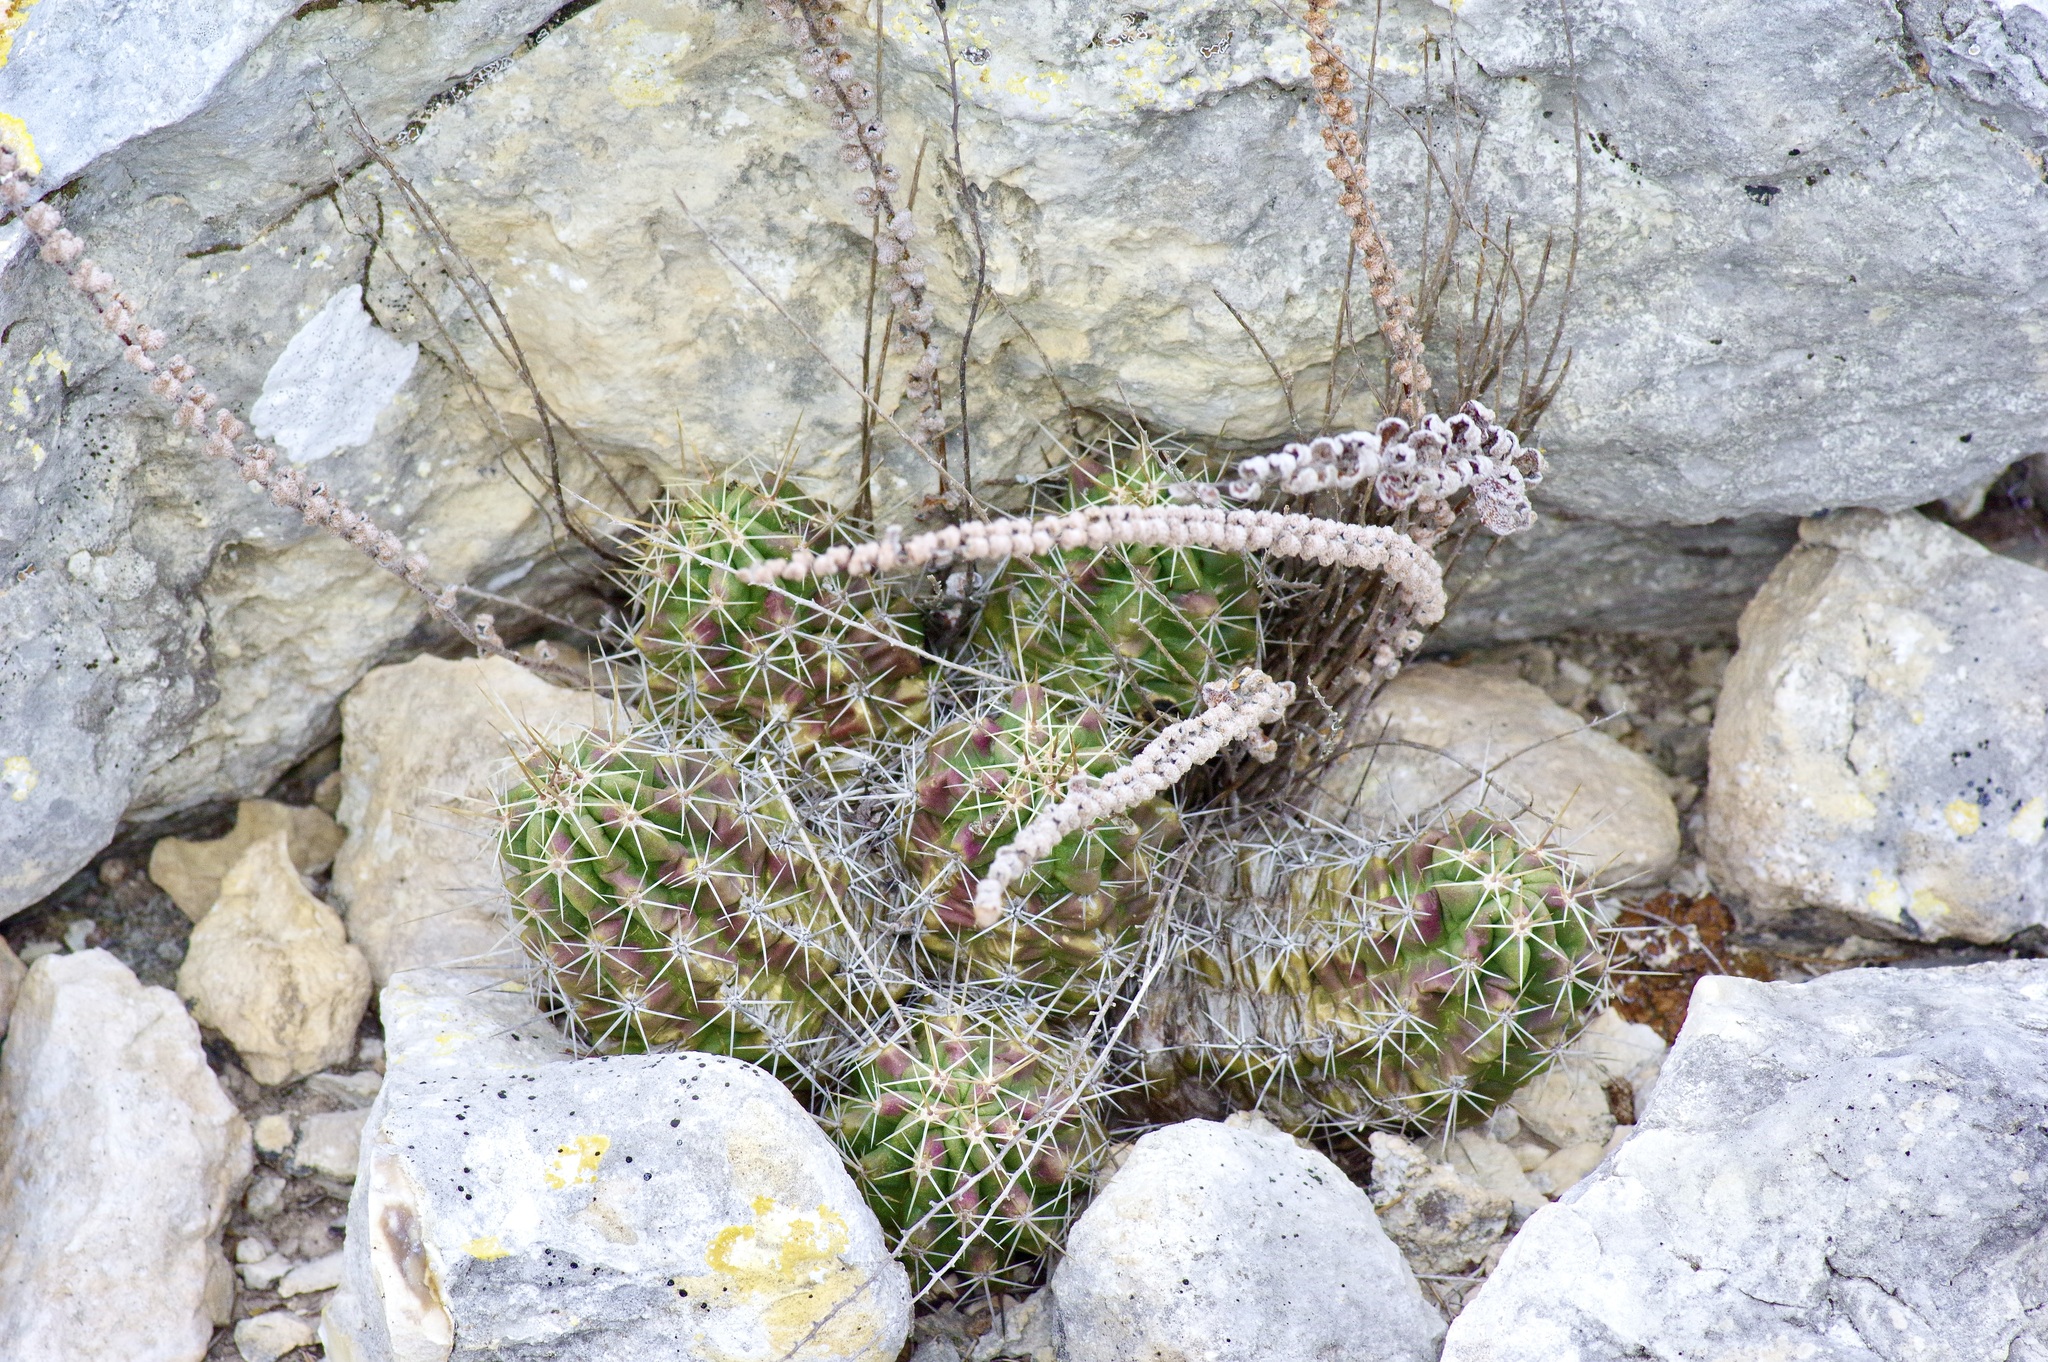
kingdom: Plantae
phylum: Tracheophyta
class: Magnoliopsida
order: Caryophyllales
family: Cactaceae
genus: Echinocereus
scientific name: Echinocereus enneacanthus
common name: Pitaya
